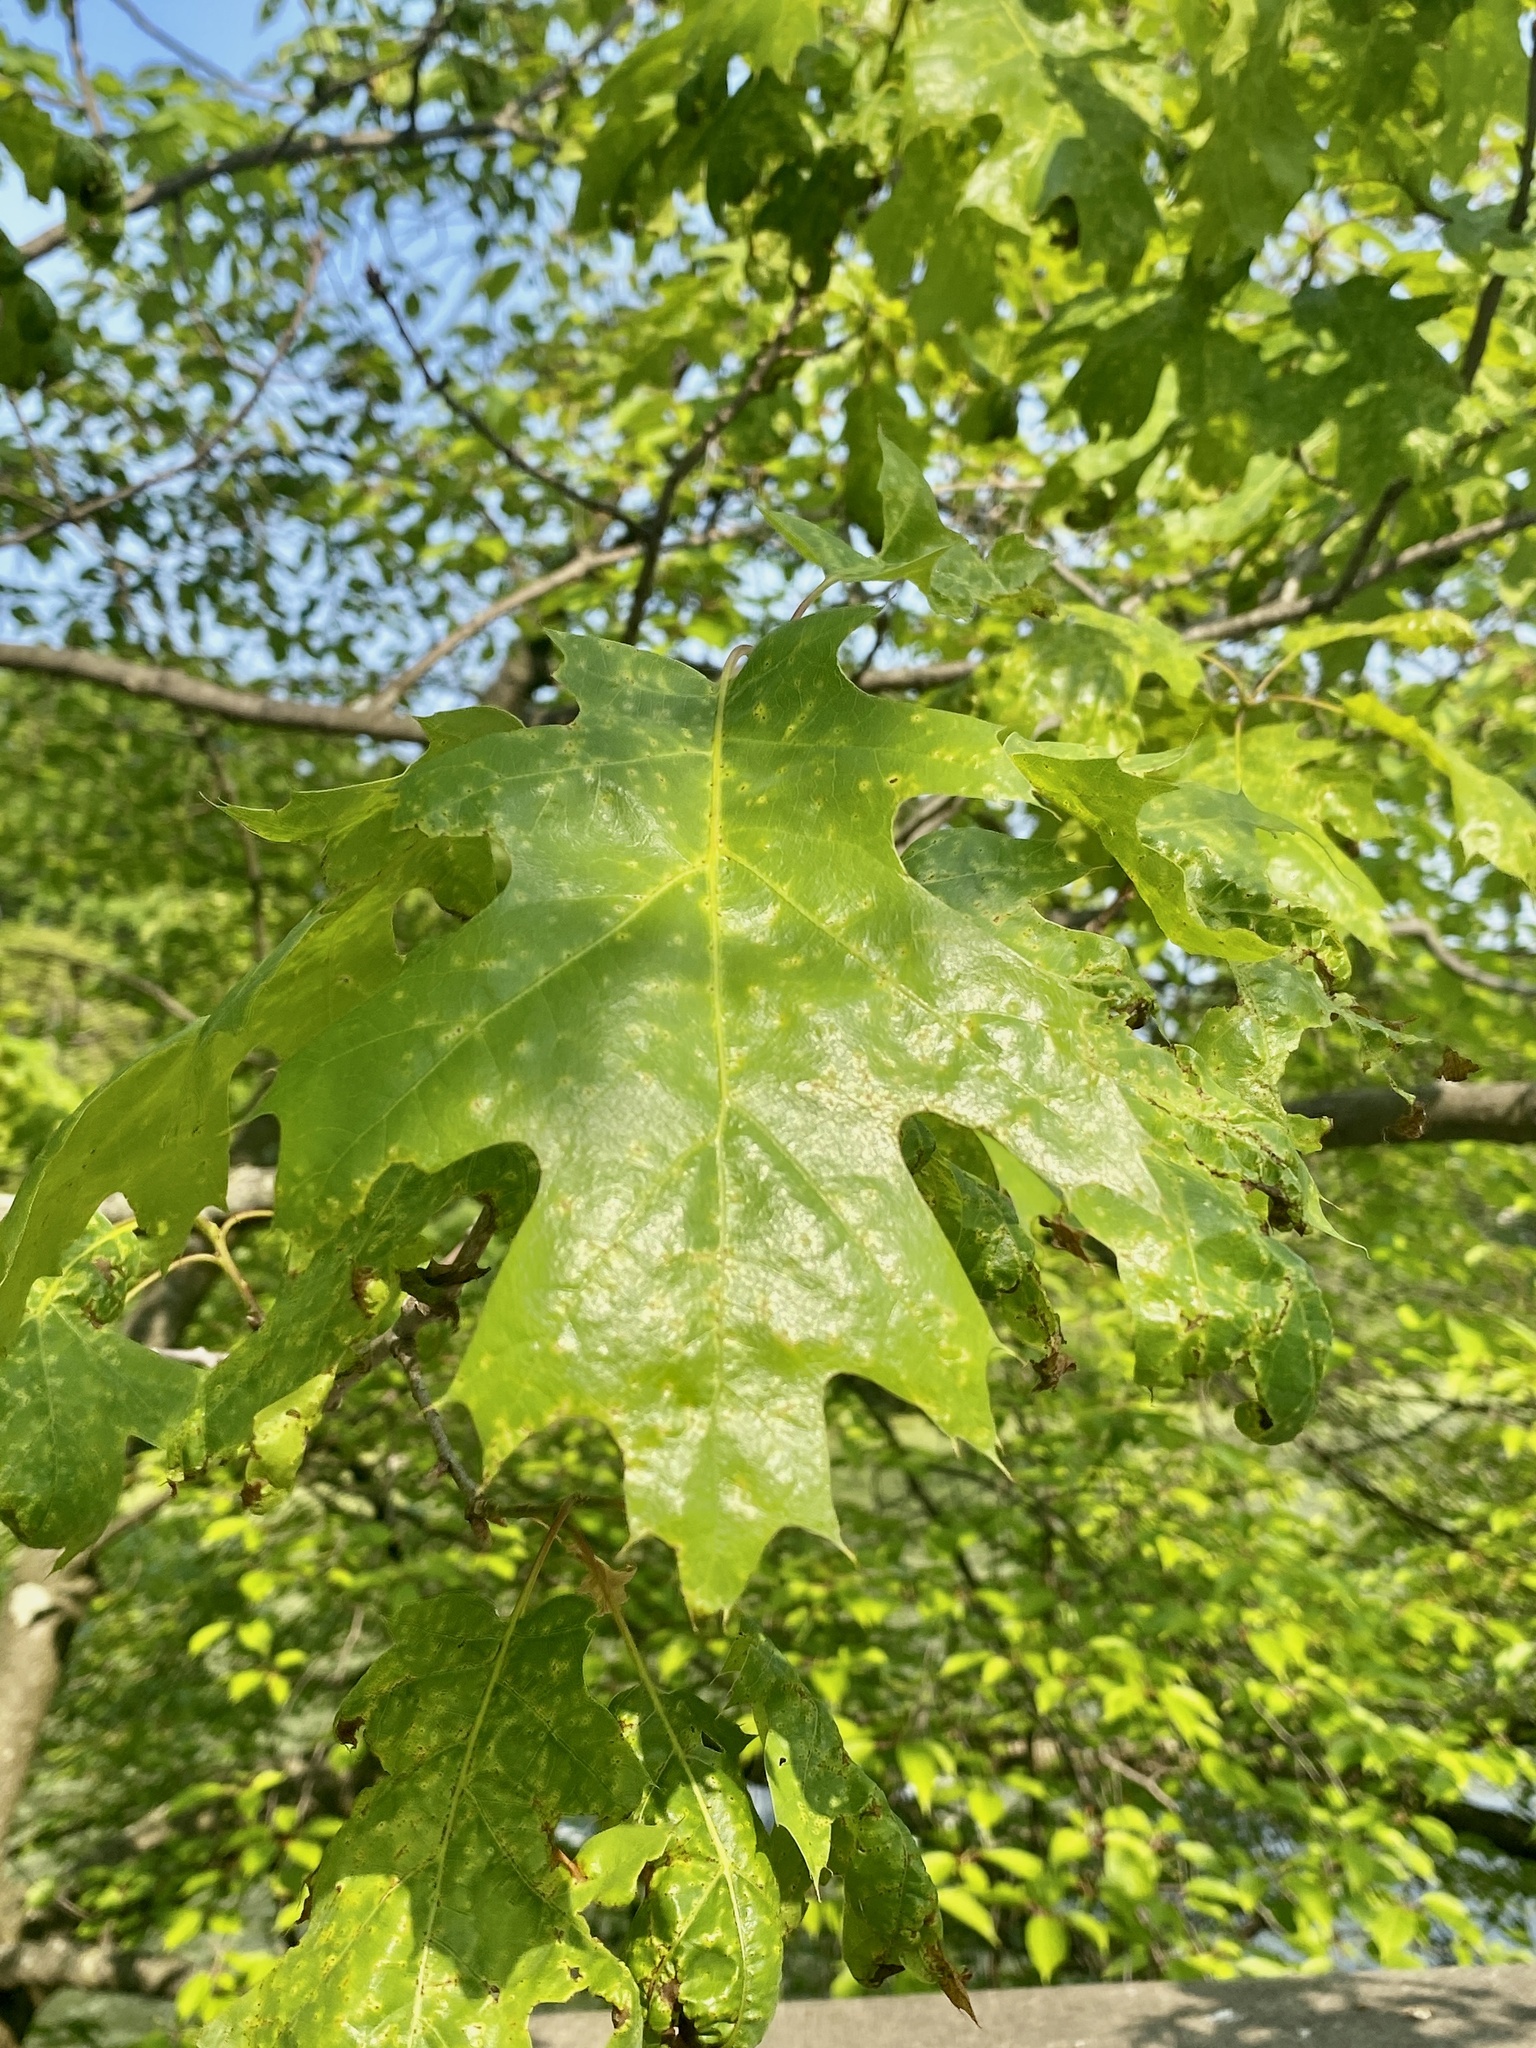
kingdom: Plantae
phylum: Tracheophyta
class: Magnoliopsida
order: Fagales
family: Fagaceae
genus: Quercus
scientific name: Quercus rubra
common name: Red oak
